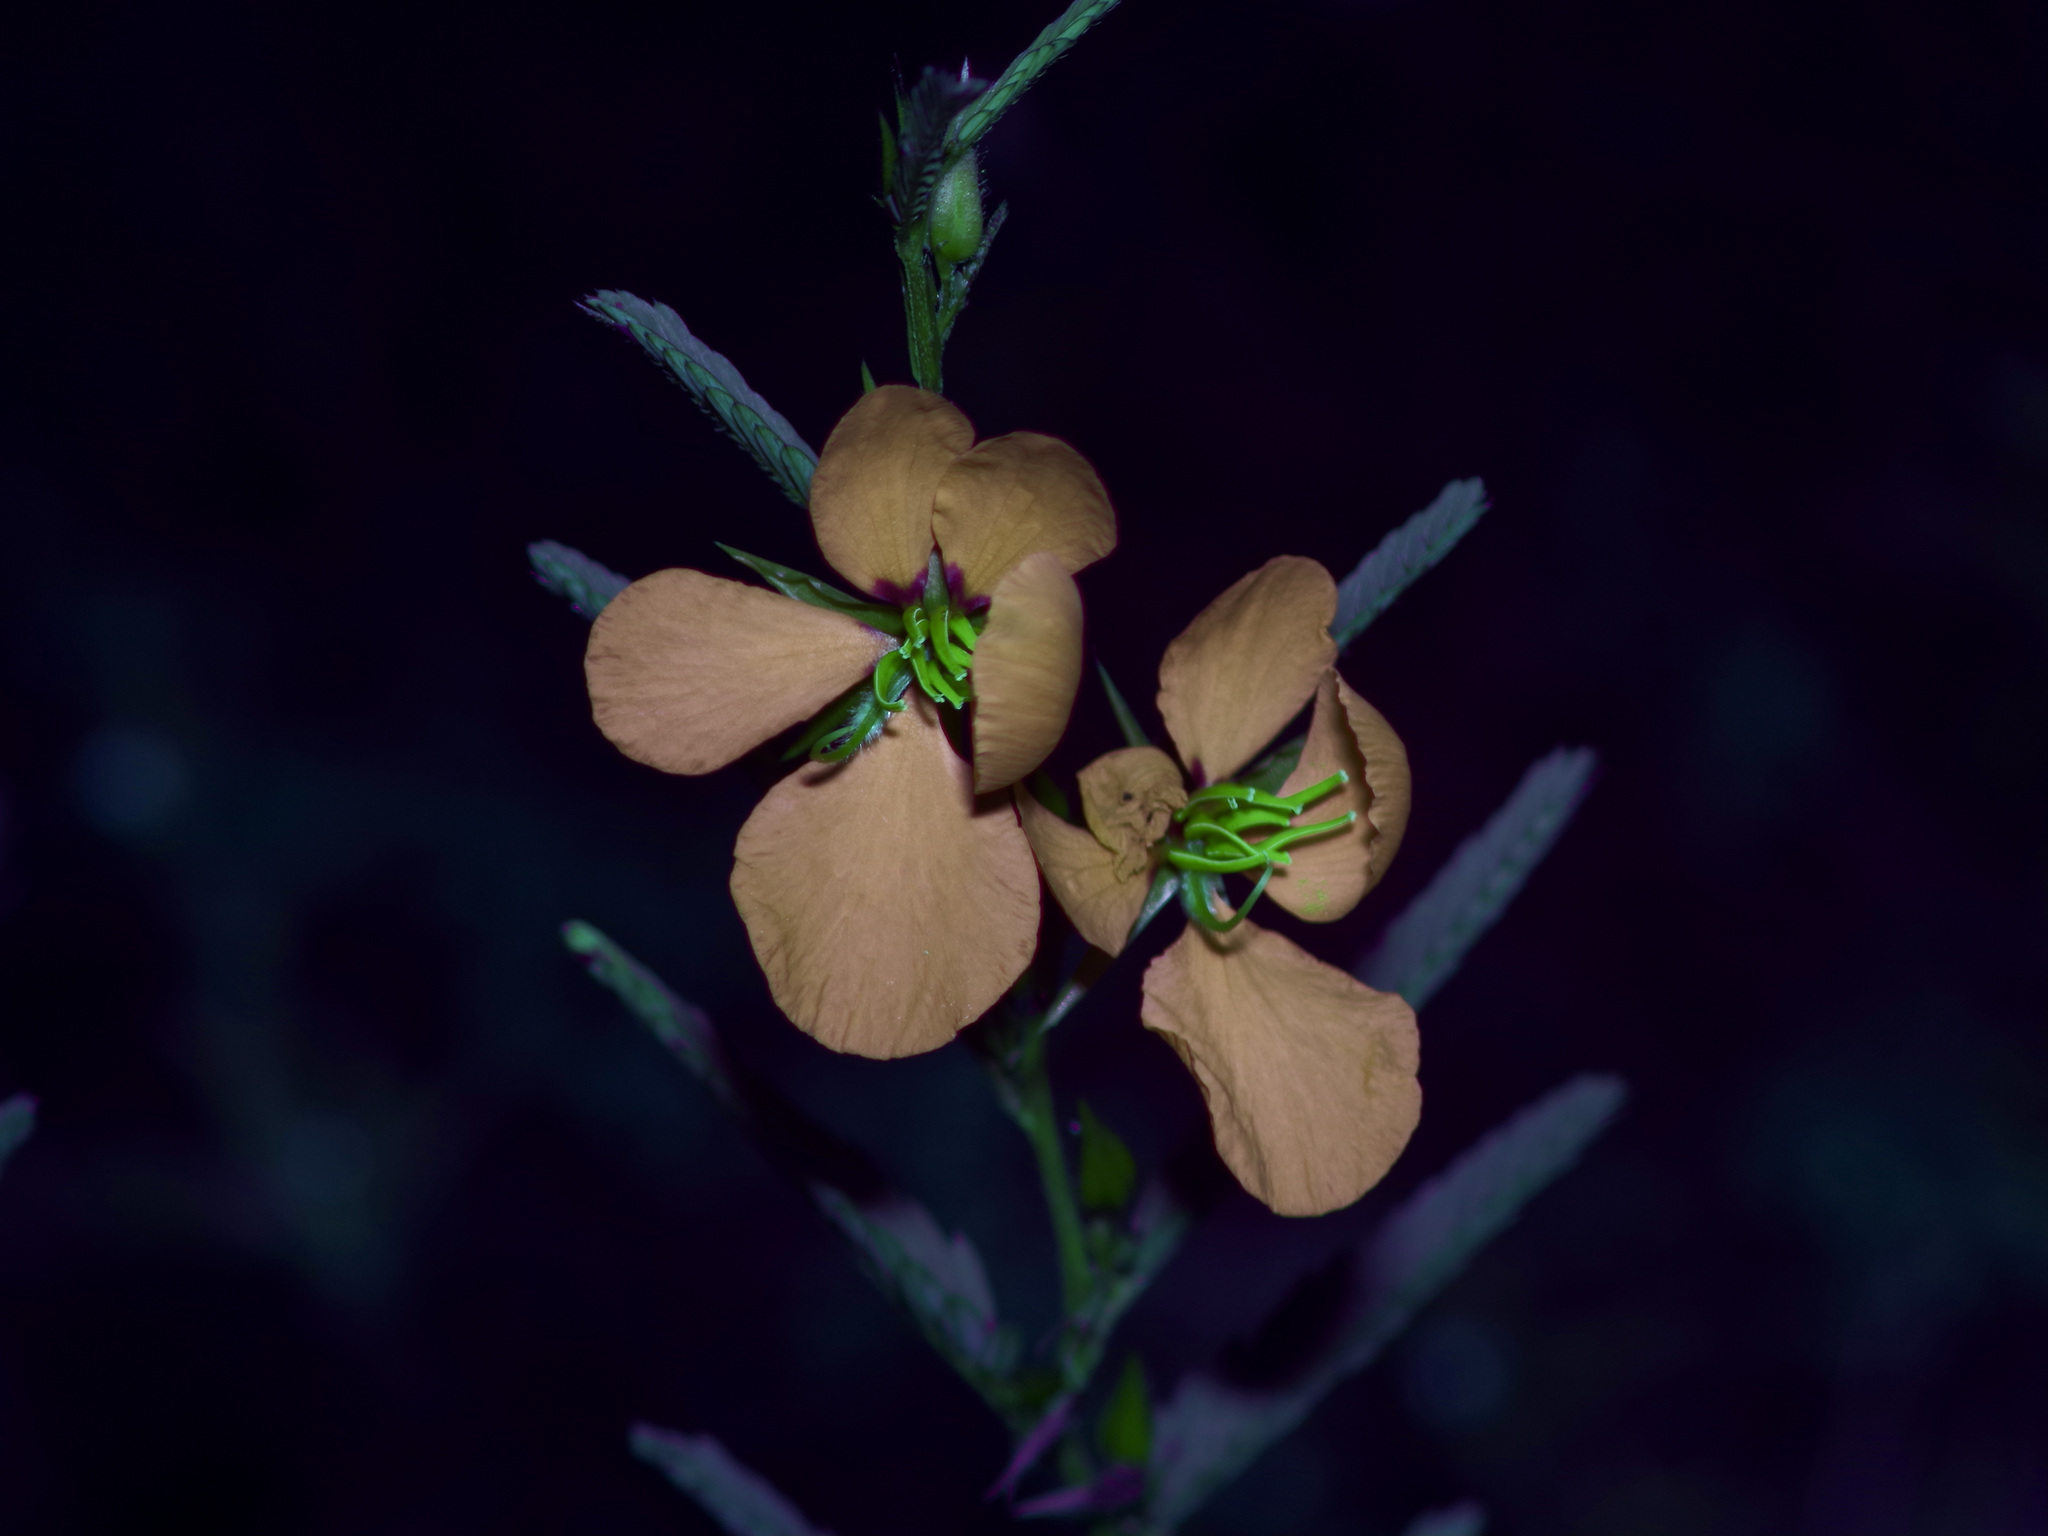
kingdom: Plantae
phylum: Tracheophyta
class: Magnoliopsida
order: Fabales
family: Fabaceae
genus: Chamaecrista
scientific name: Chamaecrista fasciculata
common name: Golden cassia
